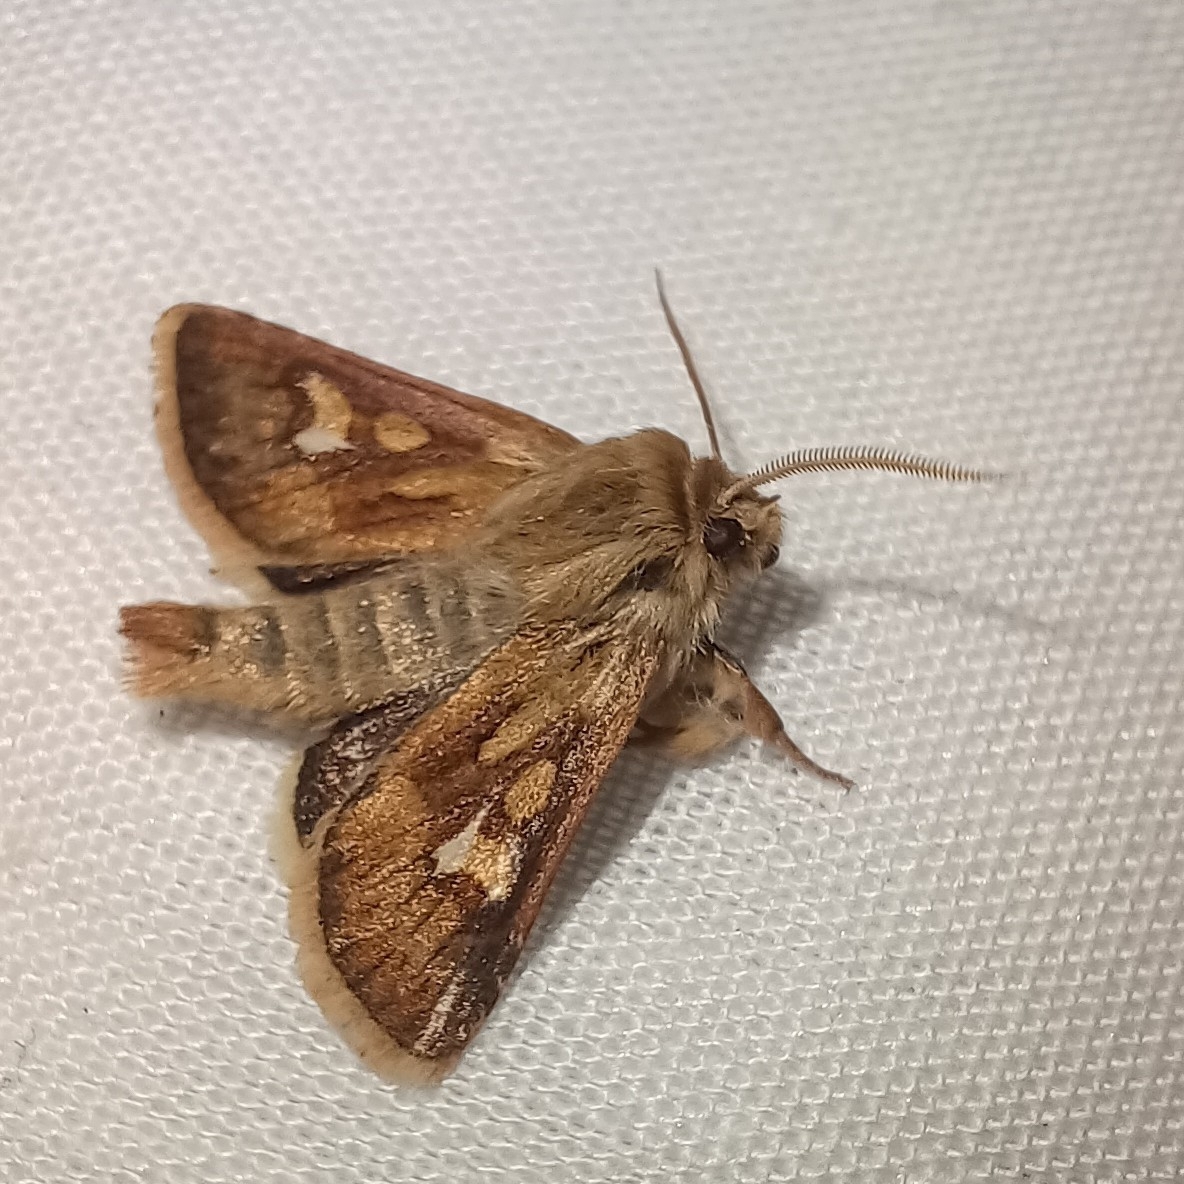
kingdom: Animalia
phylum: Arthropoda
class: Insecta
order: Lepidoptera
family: Noctuidae
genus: Cerapteryx
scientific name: Cerapteryx graminis
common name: Antler moth
